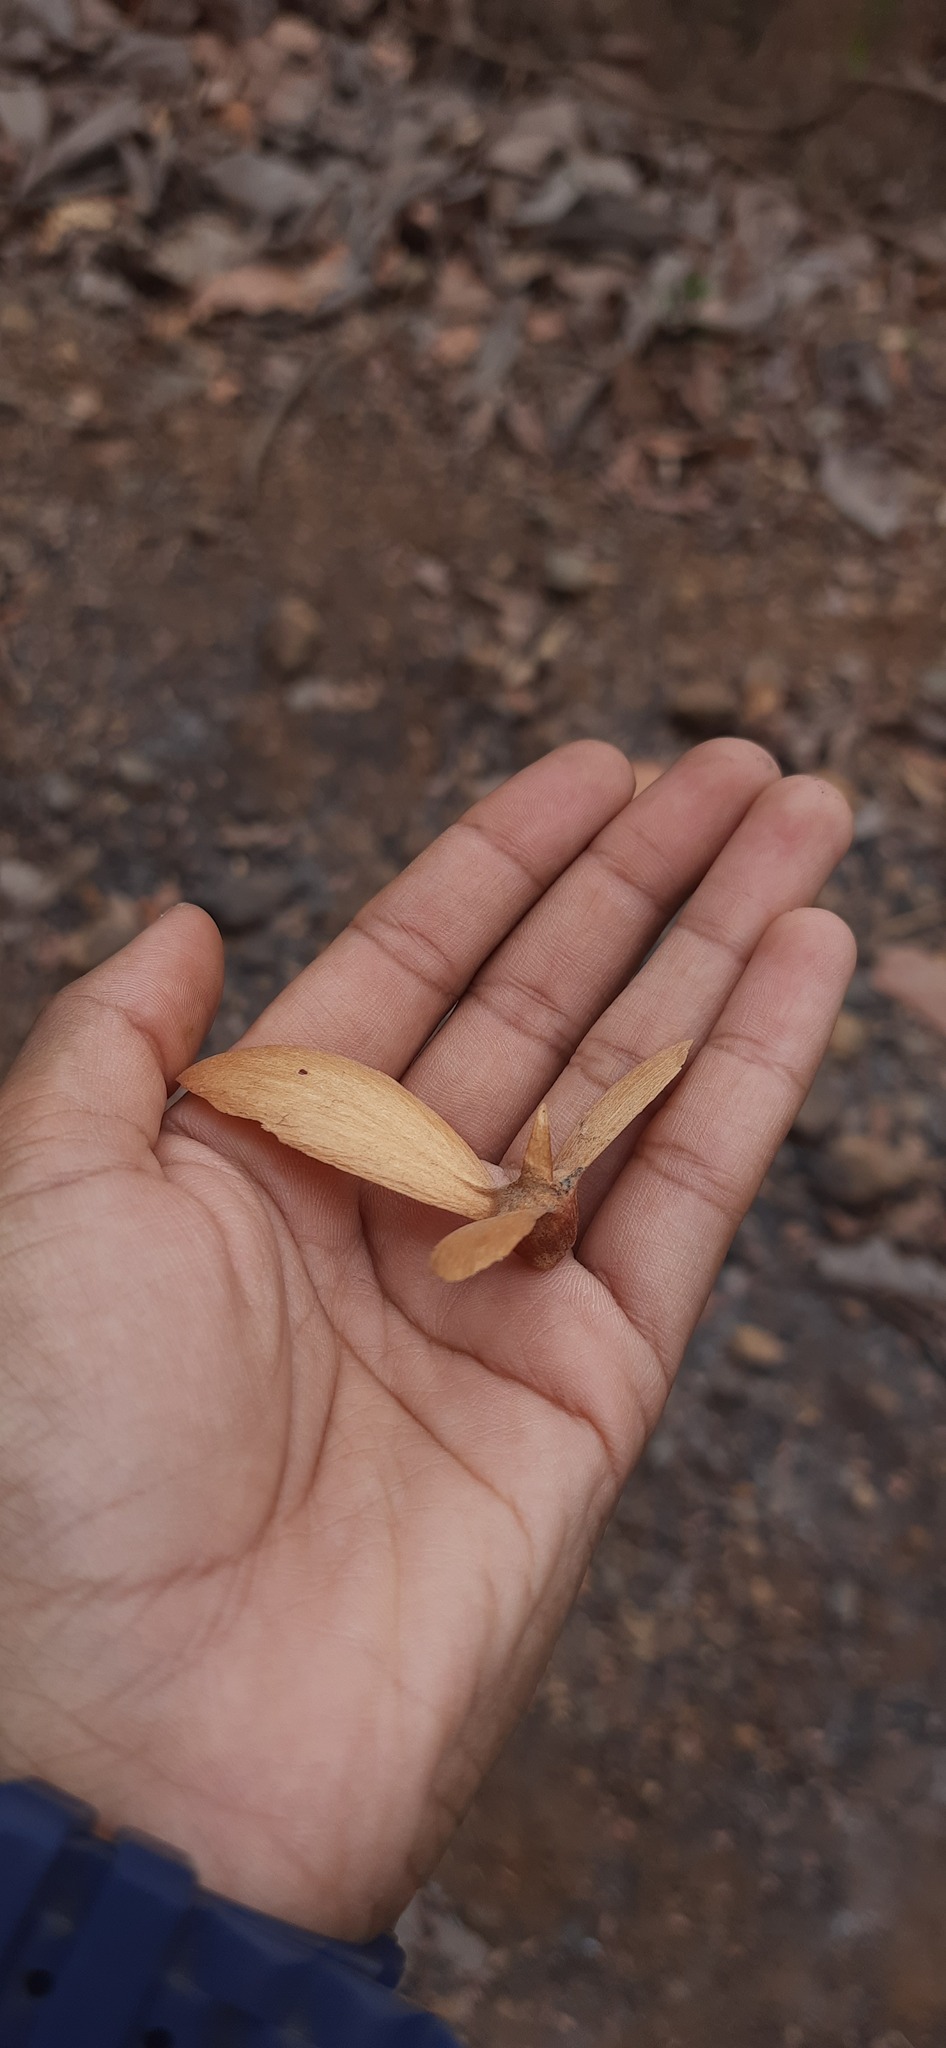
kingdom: Plantae
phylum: Tracheophyta
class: Magnoliopsida
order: Malpighiales
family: Malpighiaceae
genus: Hiptage
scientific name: Hiptage benghalensis
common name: Hiptage
